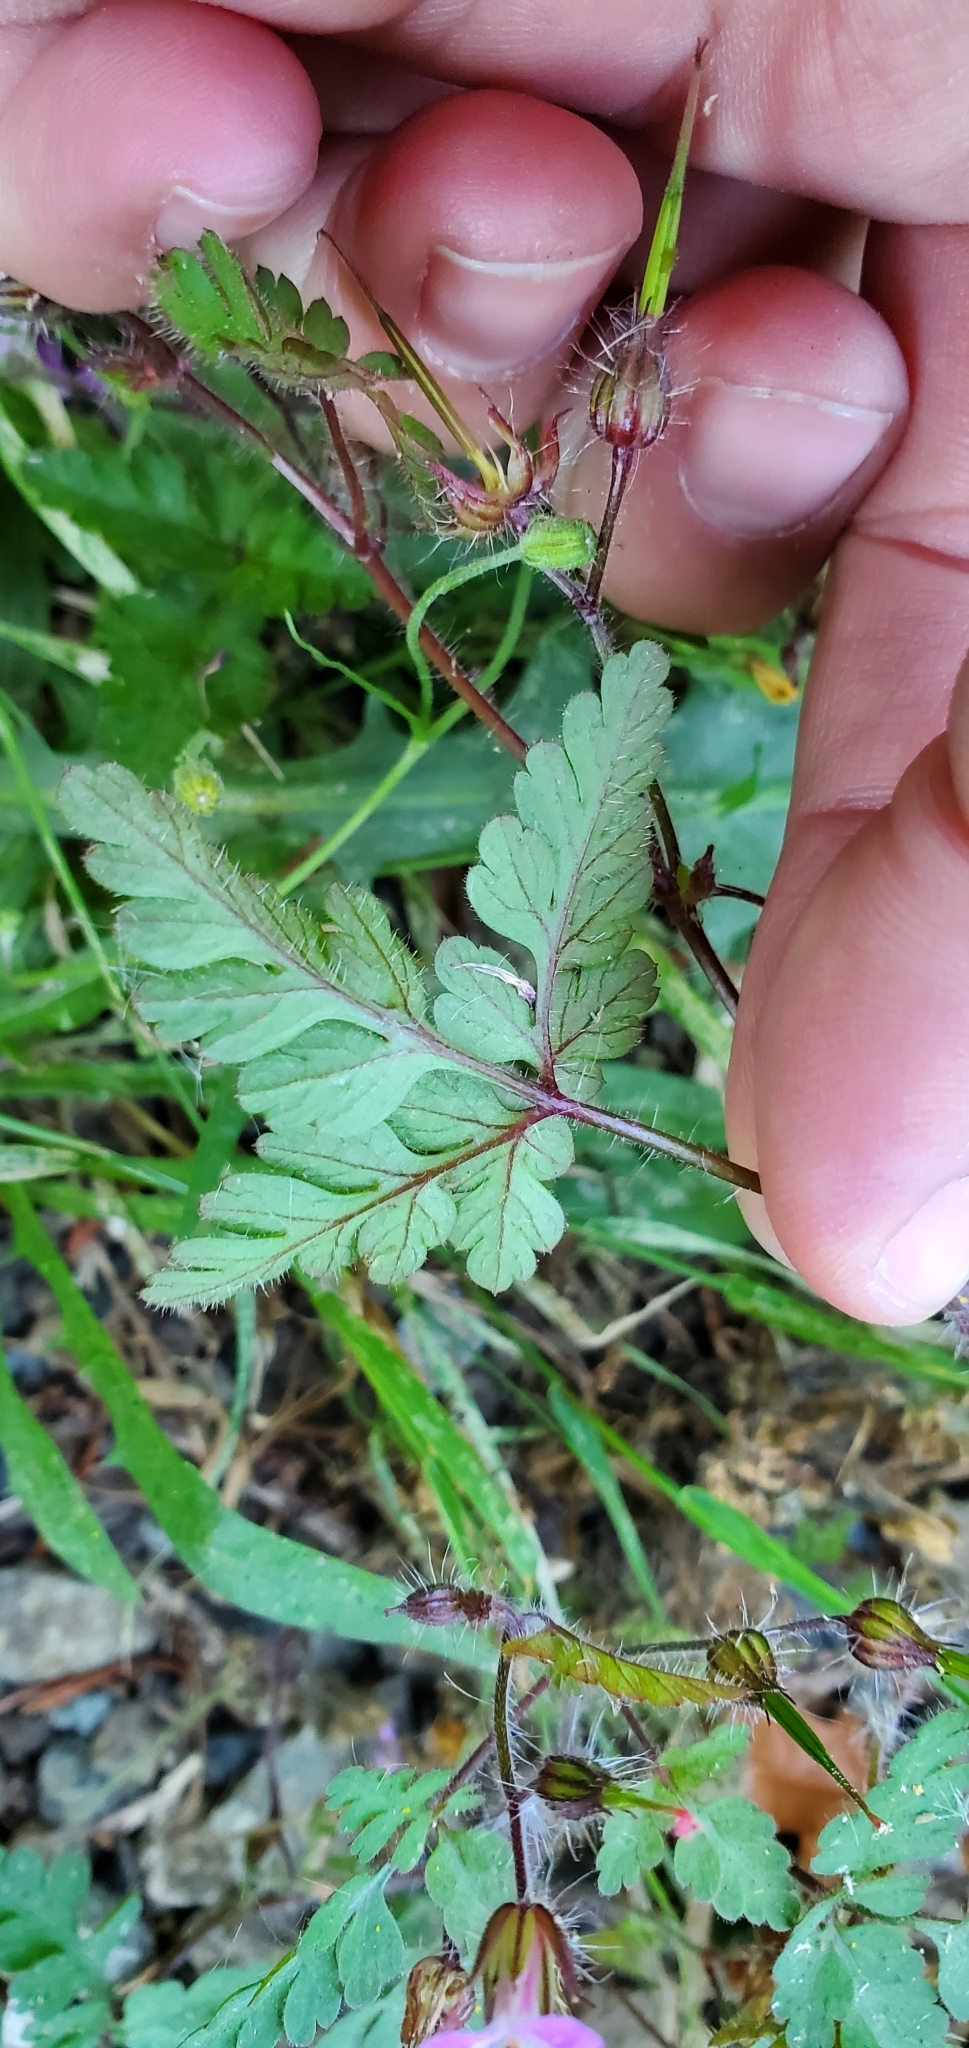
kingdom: Plantae
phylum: Tracheophyta
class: Magnoliopsida
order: Geraniales
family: Geraniaceae
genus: Geranium
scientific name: Geranium robertianum
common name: Herb-robert
